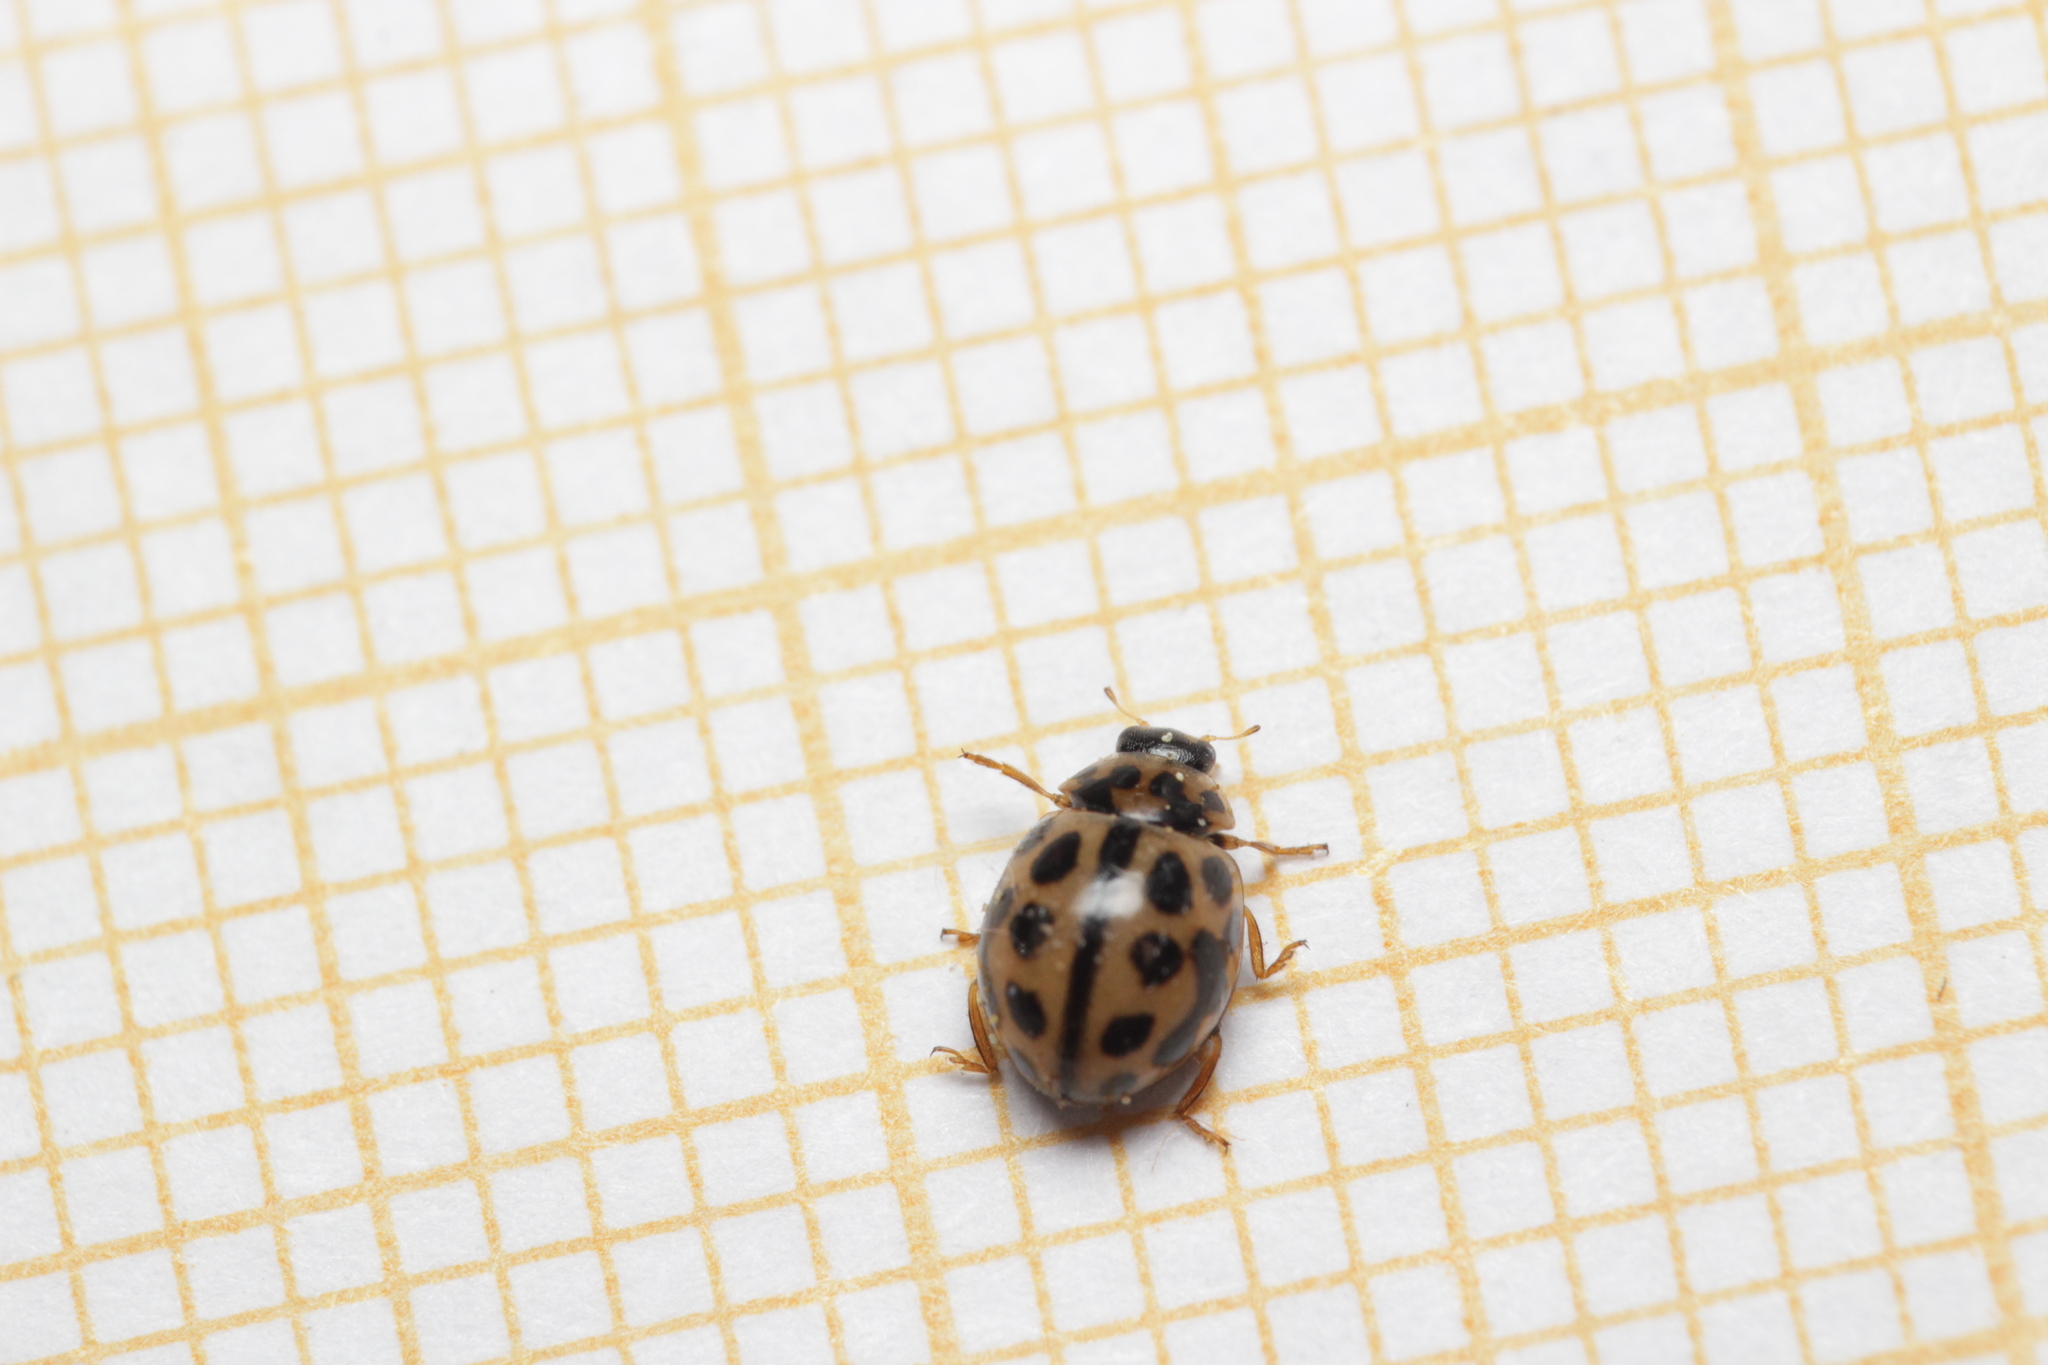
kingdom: Animalia
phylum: Arthropoda
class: Insecta
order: Coleoptera
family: Coccinellidae
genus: Tytthaspis
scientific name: Tytthaspis sedecimpunctata
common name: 16-spot ladybird
